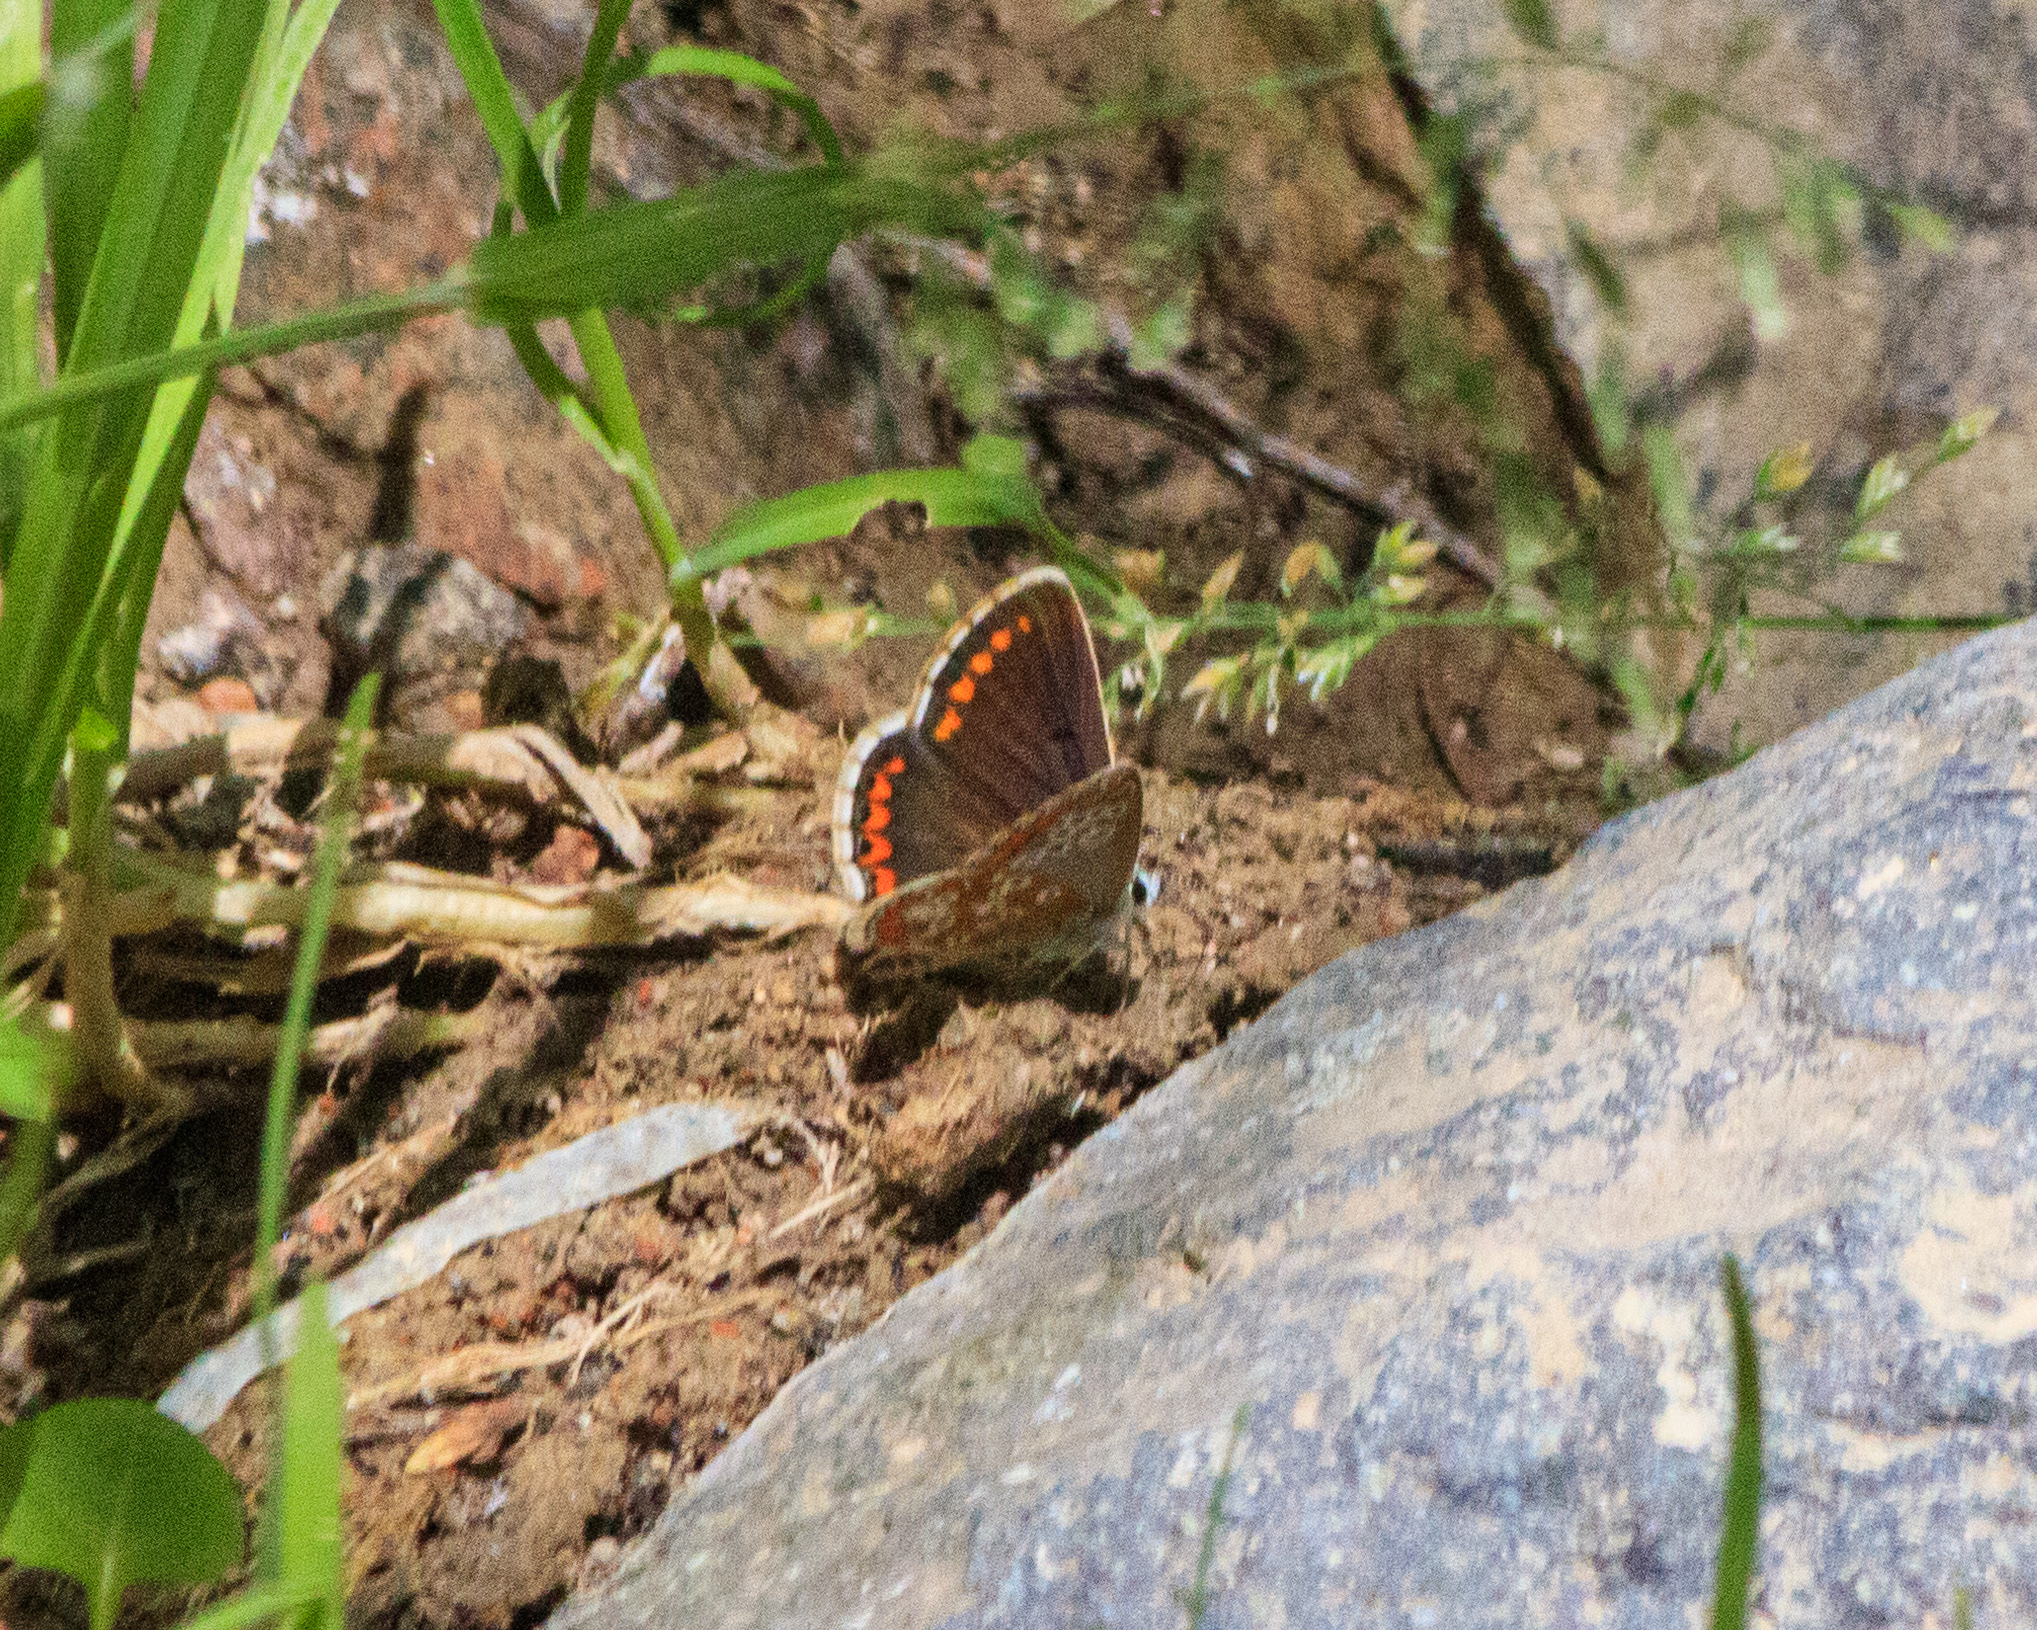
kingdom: Animalia
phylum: Arthropoda
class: Insecta
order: Lepidoptera
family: Lycaenidae
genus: Aricia
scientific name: Aricia agestis
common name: Brown argus
